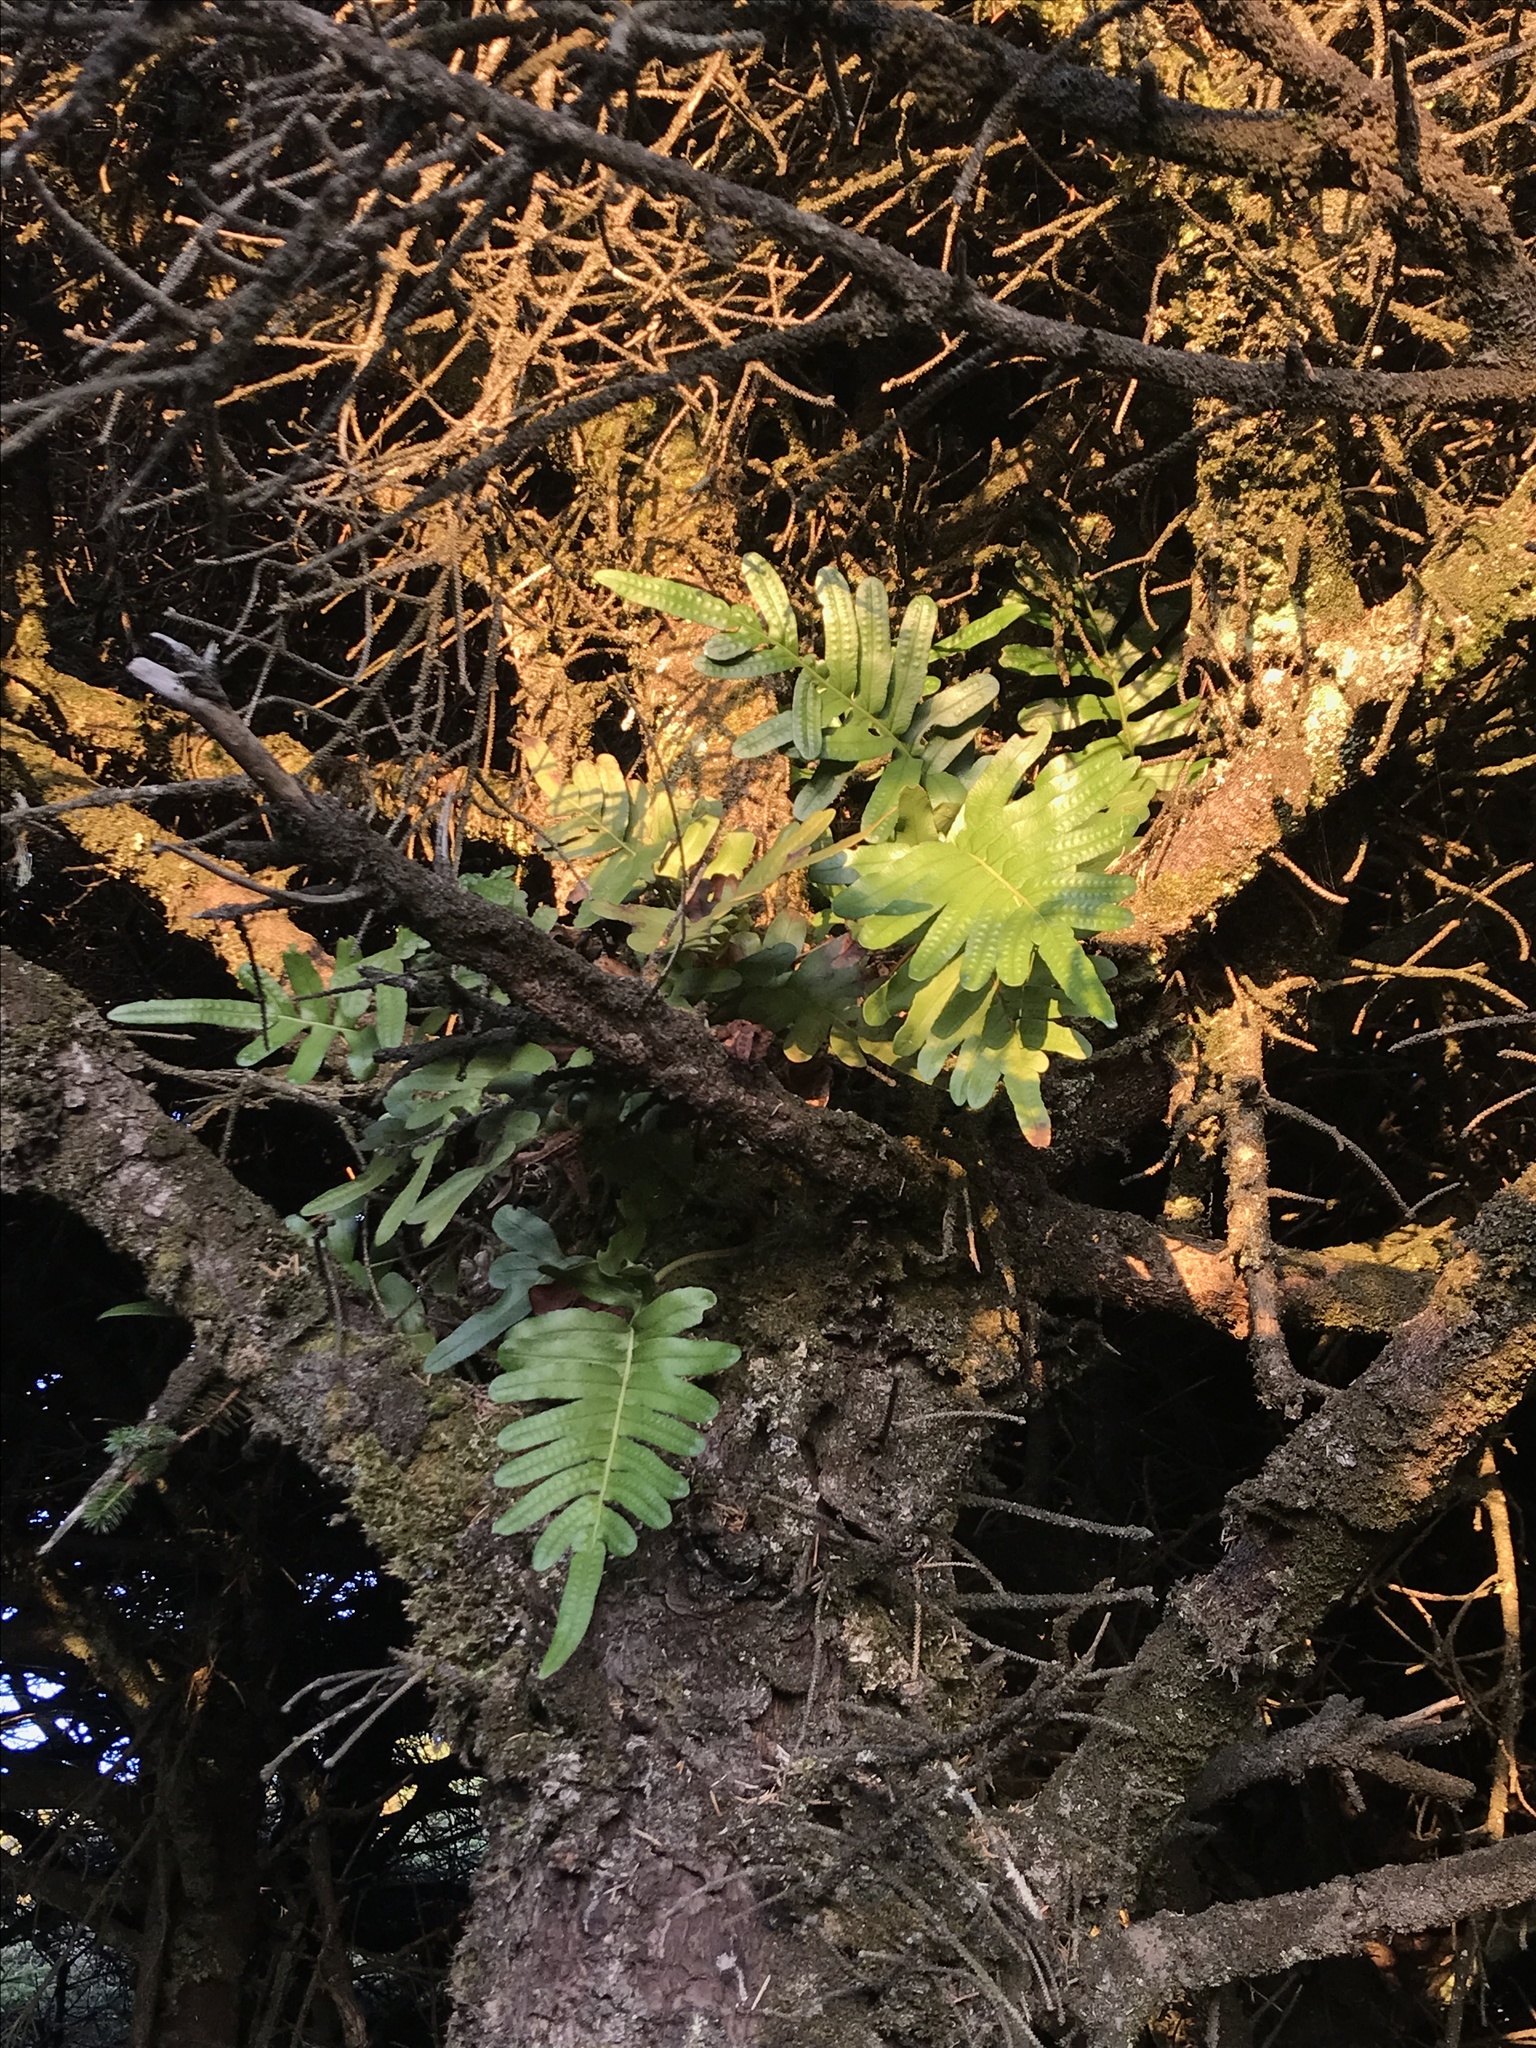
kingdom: Plantae
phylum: Tracheophyta
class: Polypodiopsida
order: Polypodiales
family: Polypodiaceae
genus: Polypodium
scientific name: Polypodium scouleri
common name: Scouler's polypody
